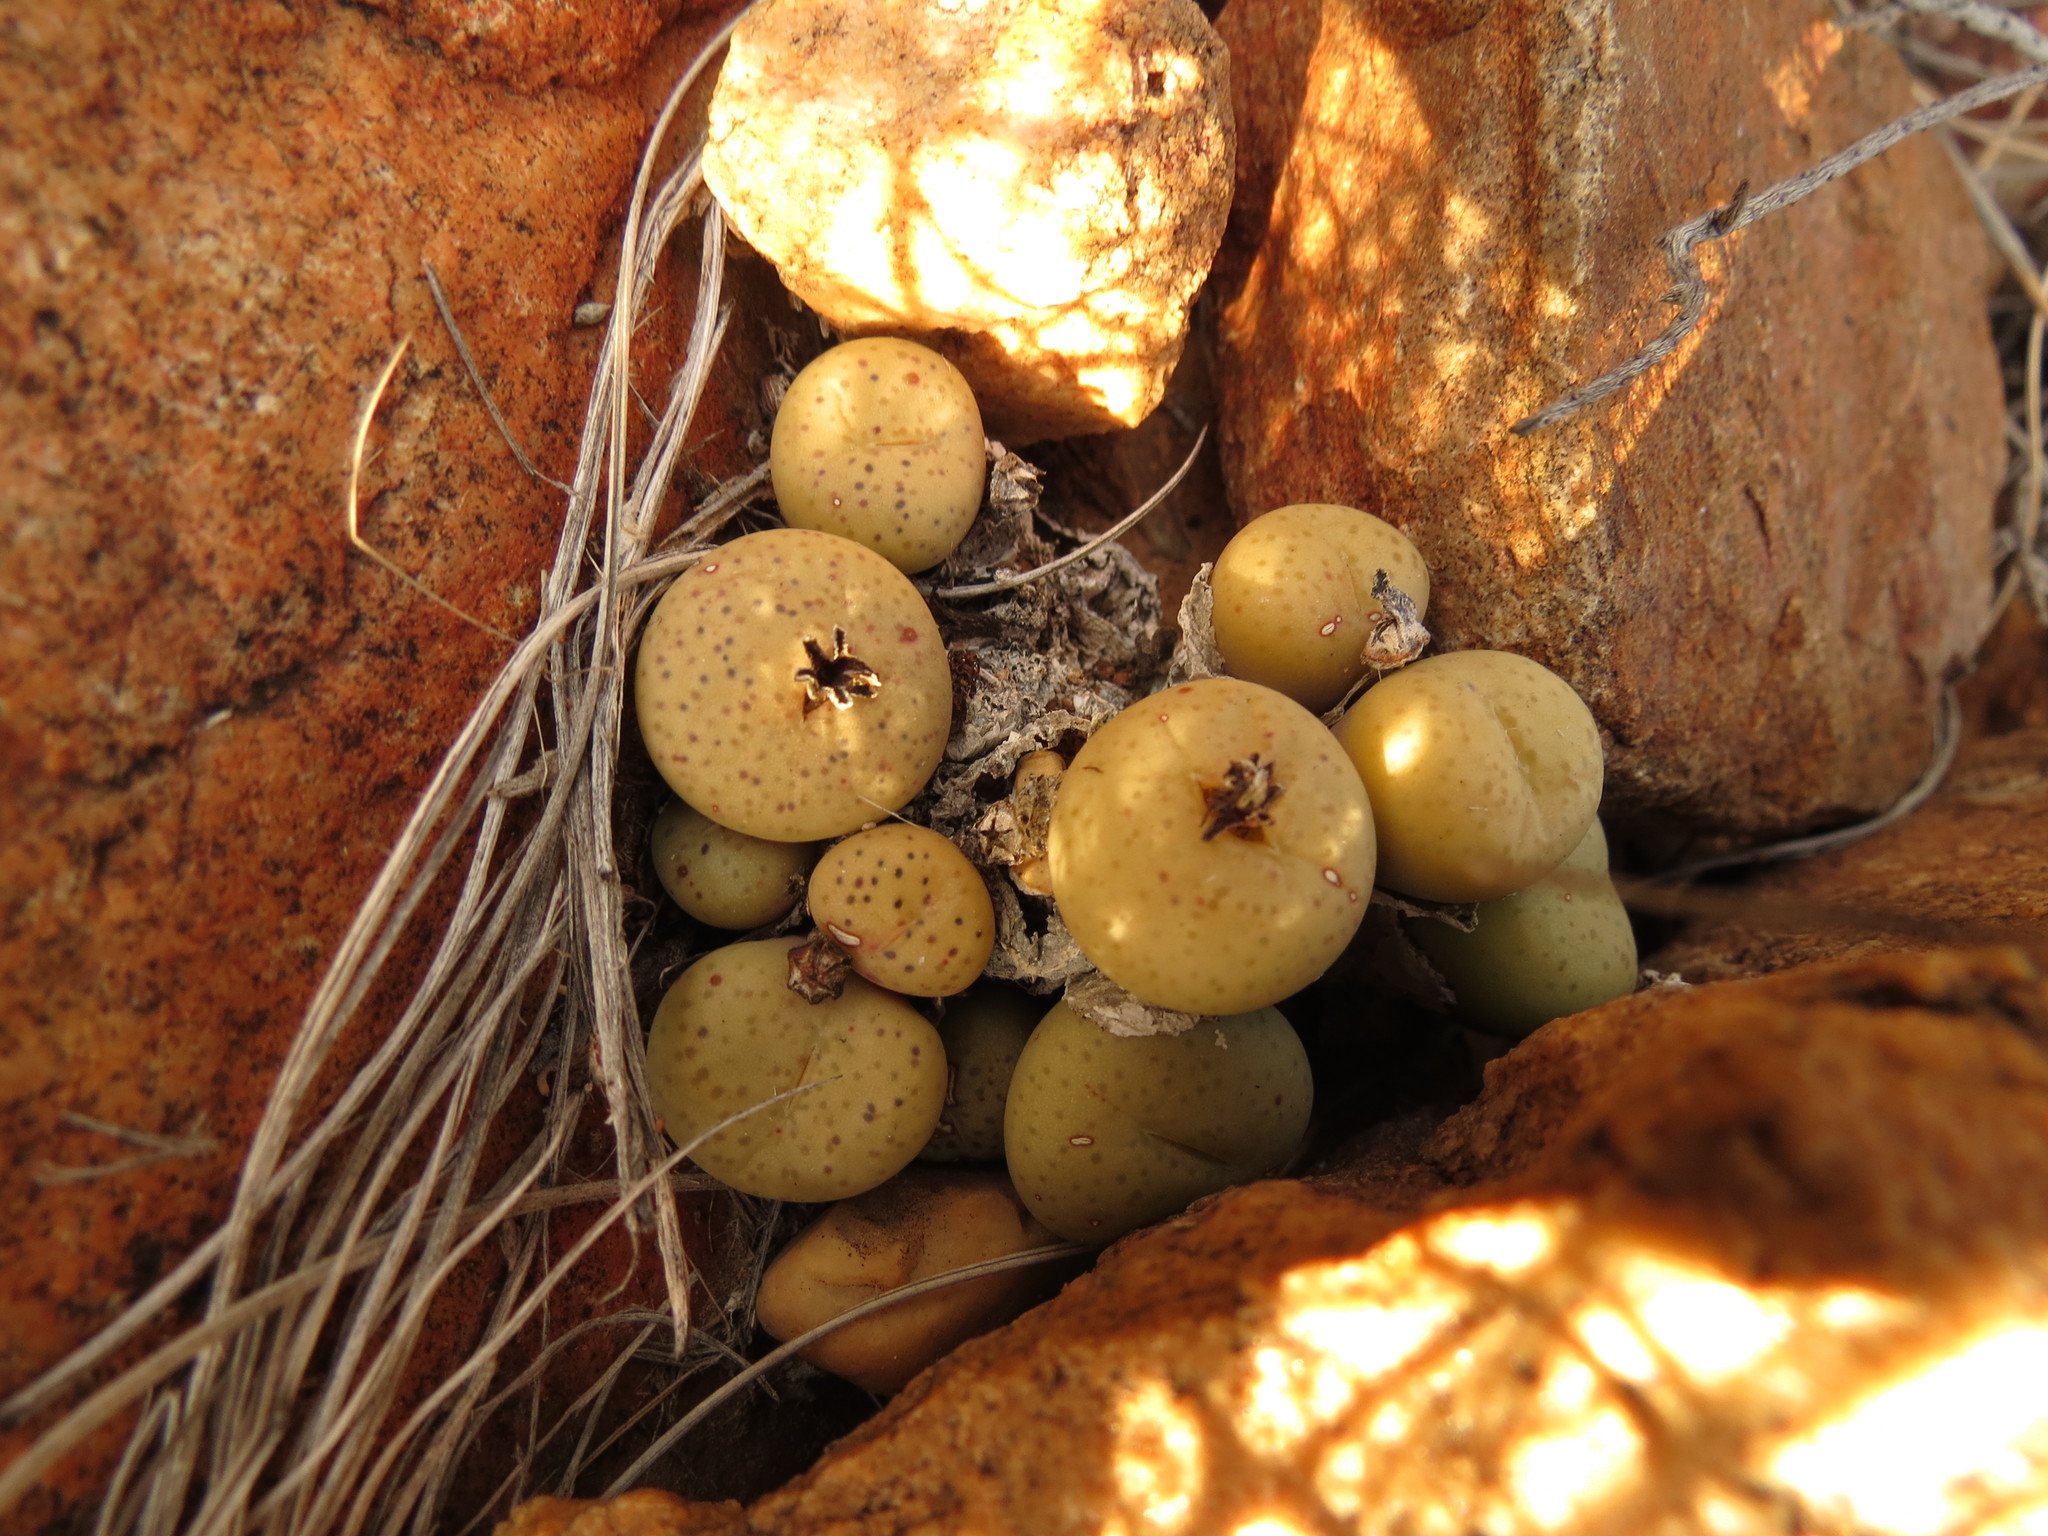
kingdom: Plantae
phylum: Tracheophyta
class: Magnoliopsida
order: Caryophyllales
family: Aizoaceae
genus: Conophytum
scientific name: Conophytum truncatum
